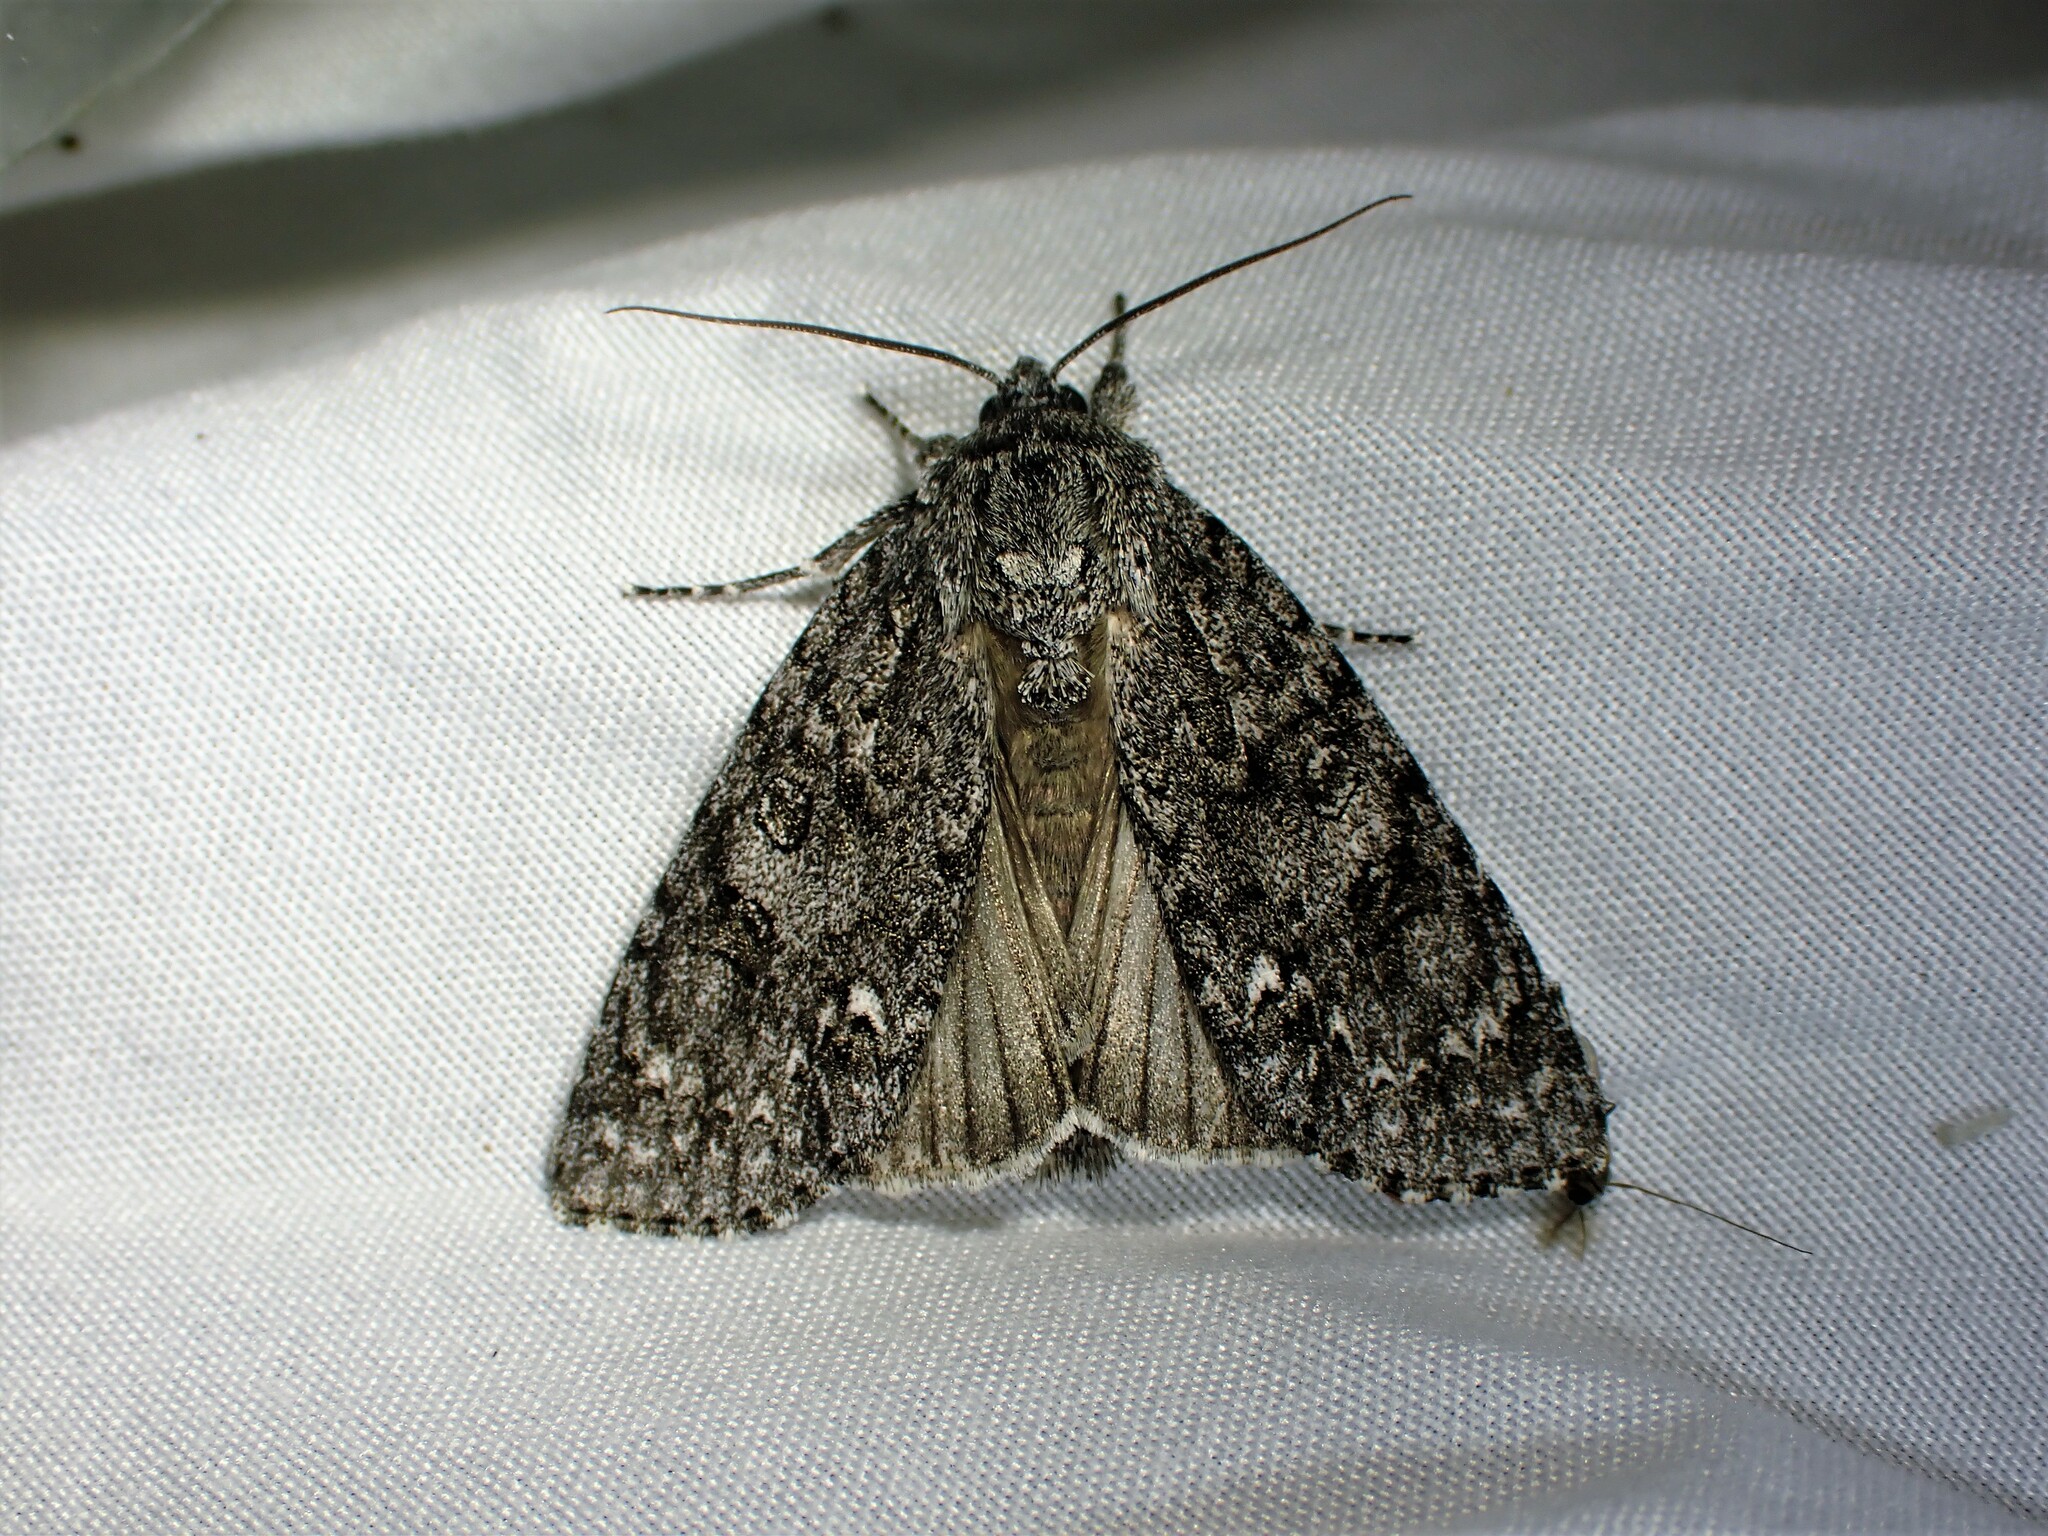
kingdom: Animalia
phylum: Arthropoda
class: Insecta
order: Lepidoptera
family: Noctuidae
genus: Acronicta
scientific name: Acronicta impleta
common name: Powdered dagger
